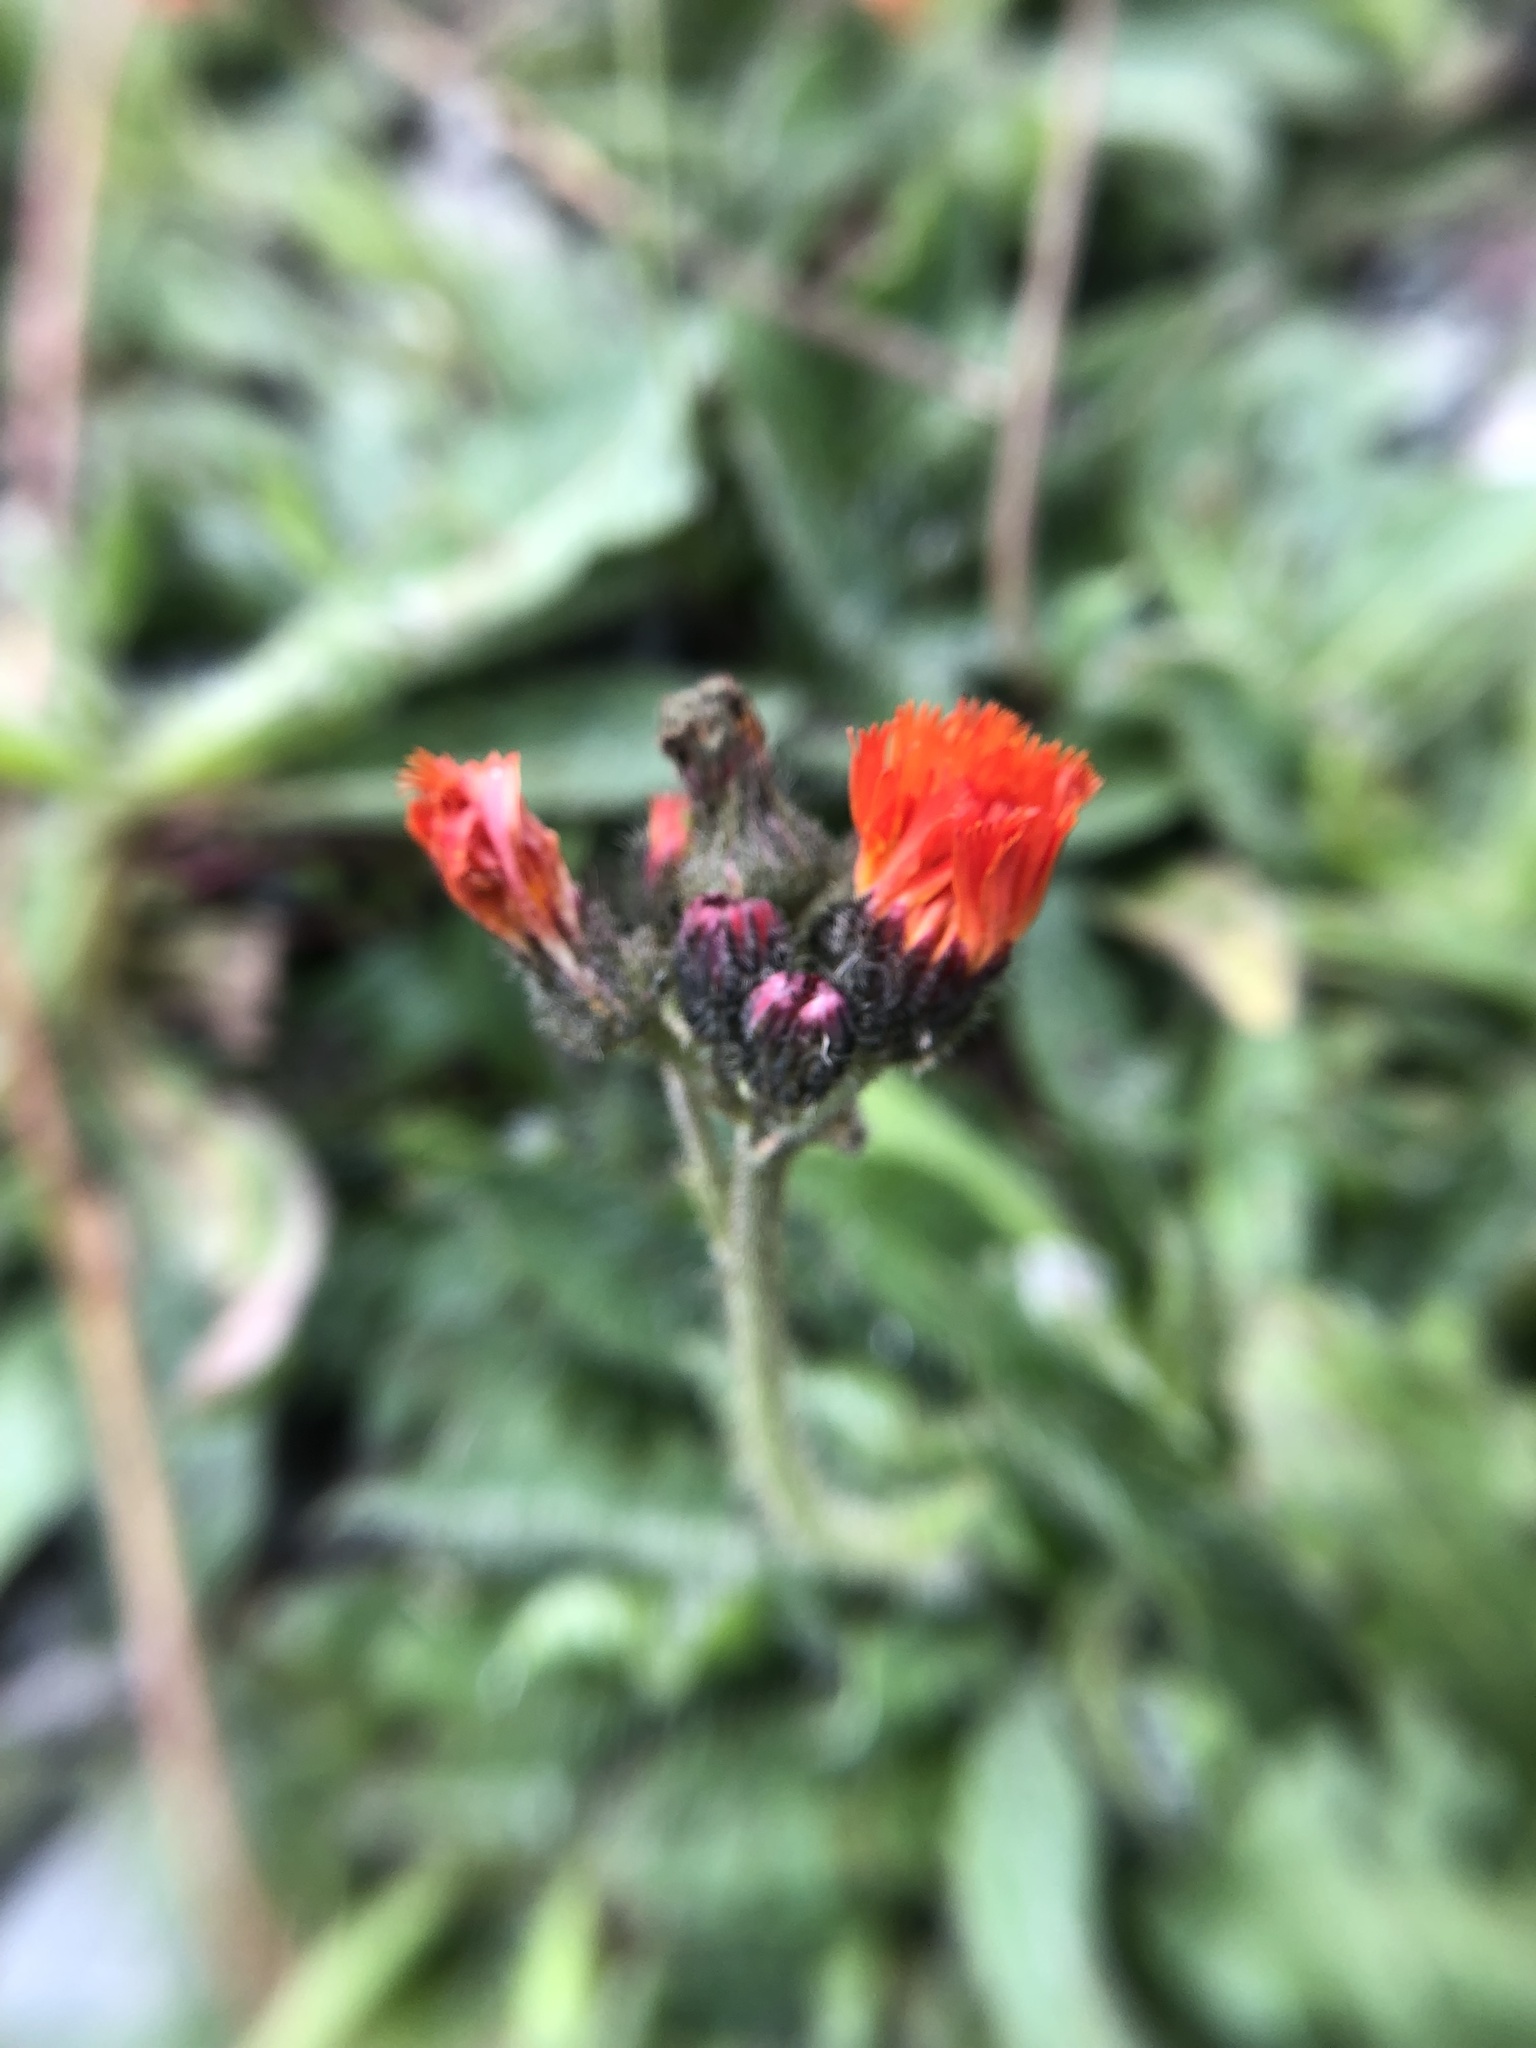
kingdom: Plantae
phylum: Tracheophyta
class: Magnoliopsida
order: Asterales
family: Asteraceae
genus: Pilosella
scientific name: Pilosella aurantiaca
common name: Fox-and-cubs
